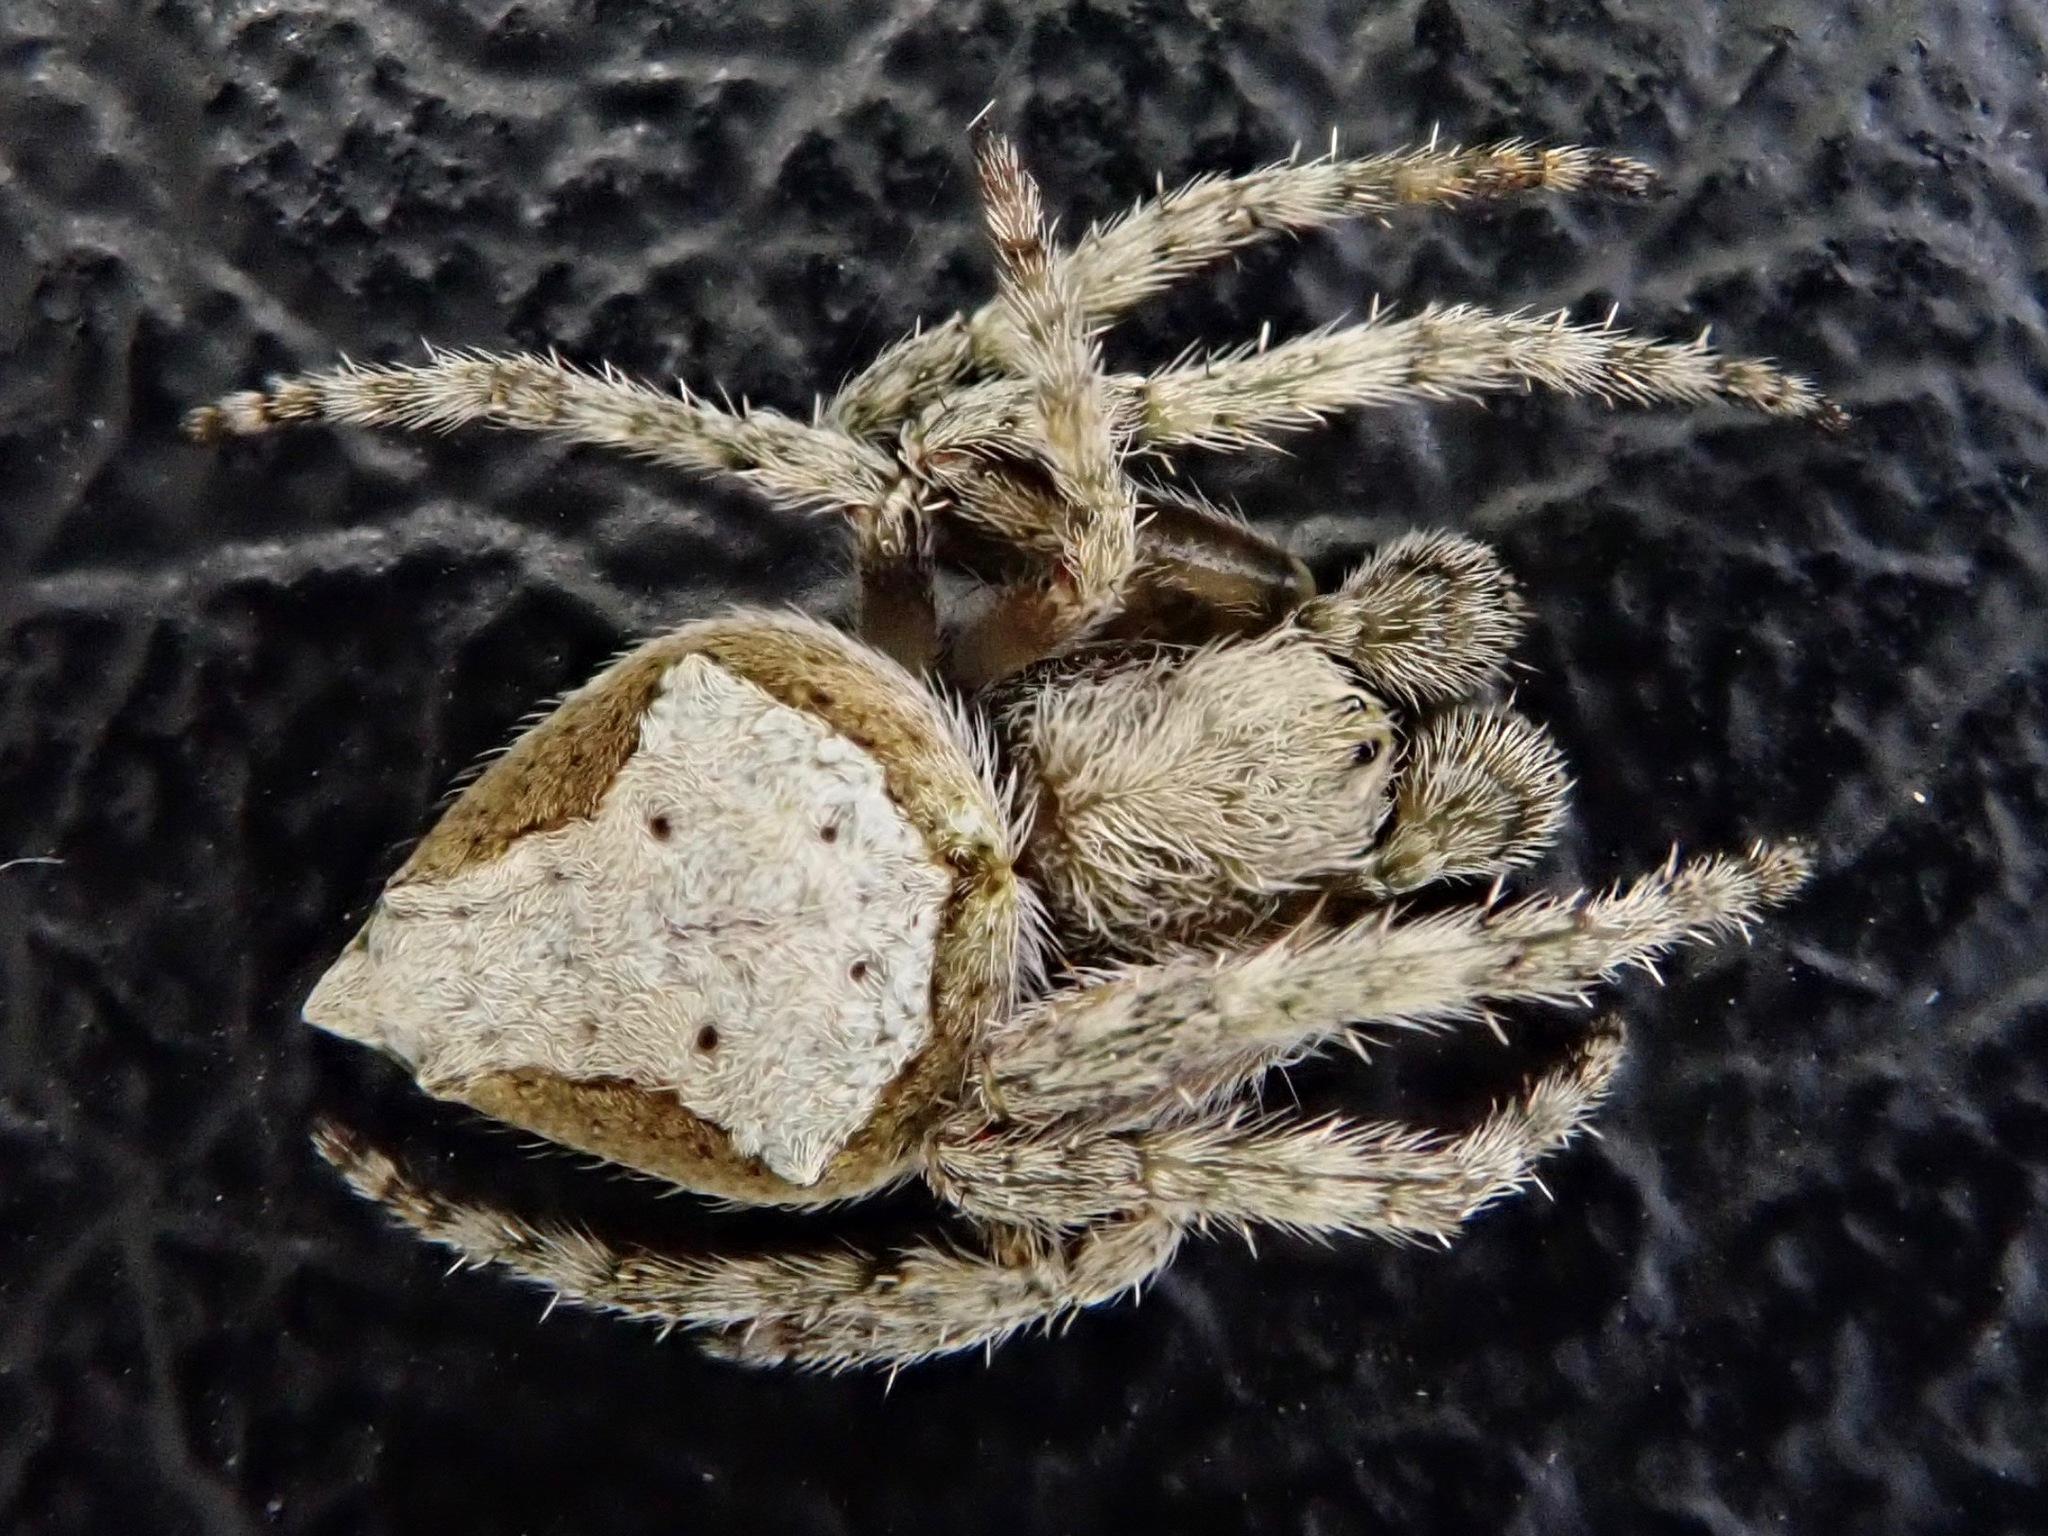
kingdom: Animalia
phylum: Arthropoda
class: Arachnida
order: Araneae
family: Araneidae
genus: Eriophora
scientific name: Eriophora pustulosa
